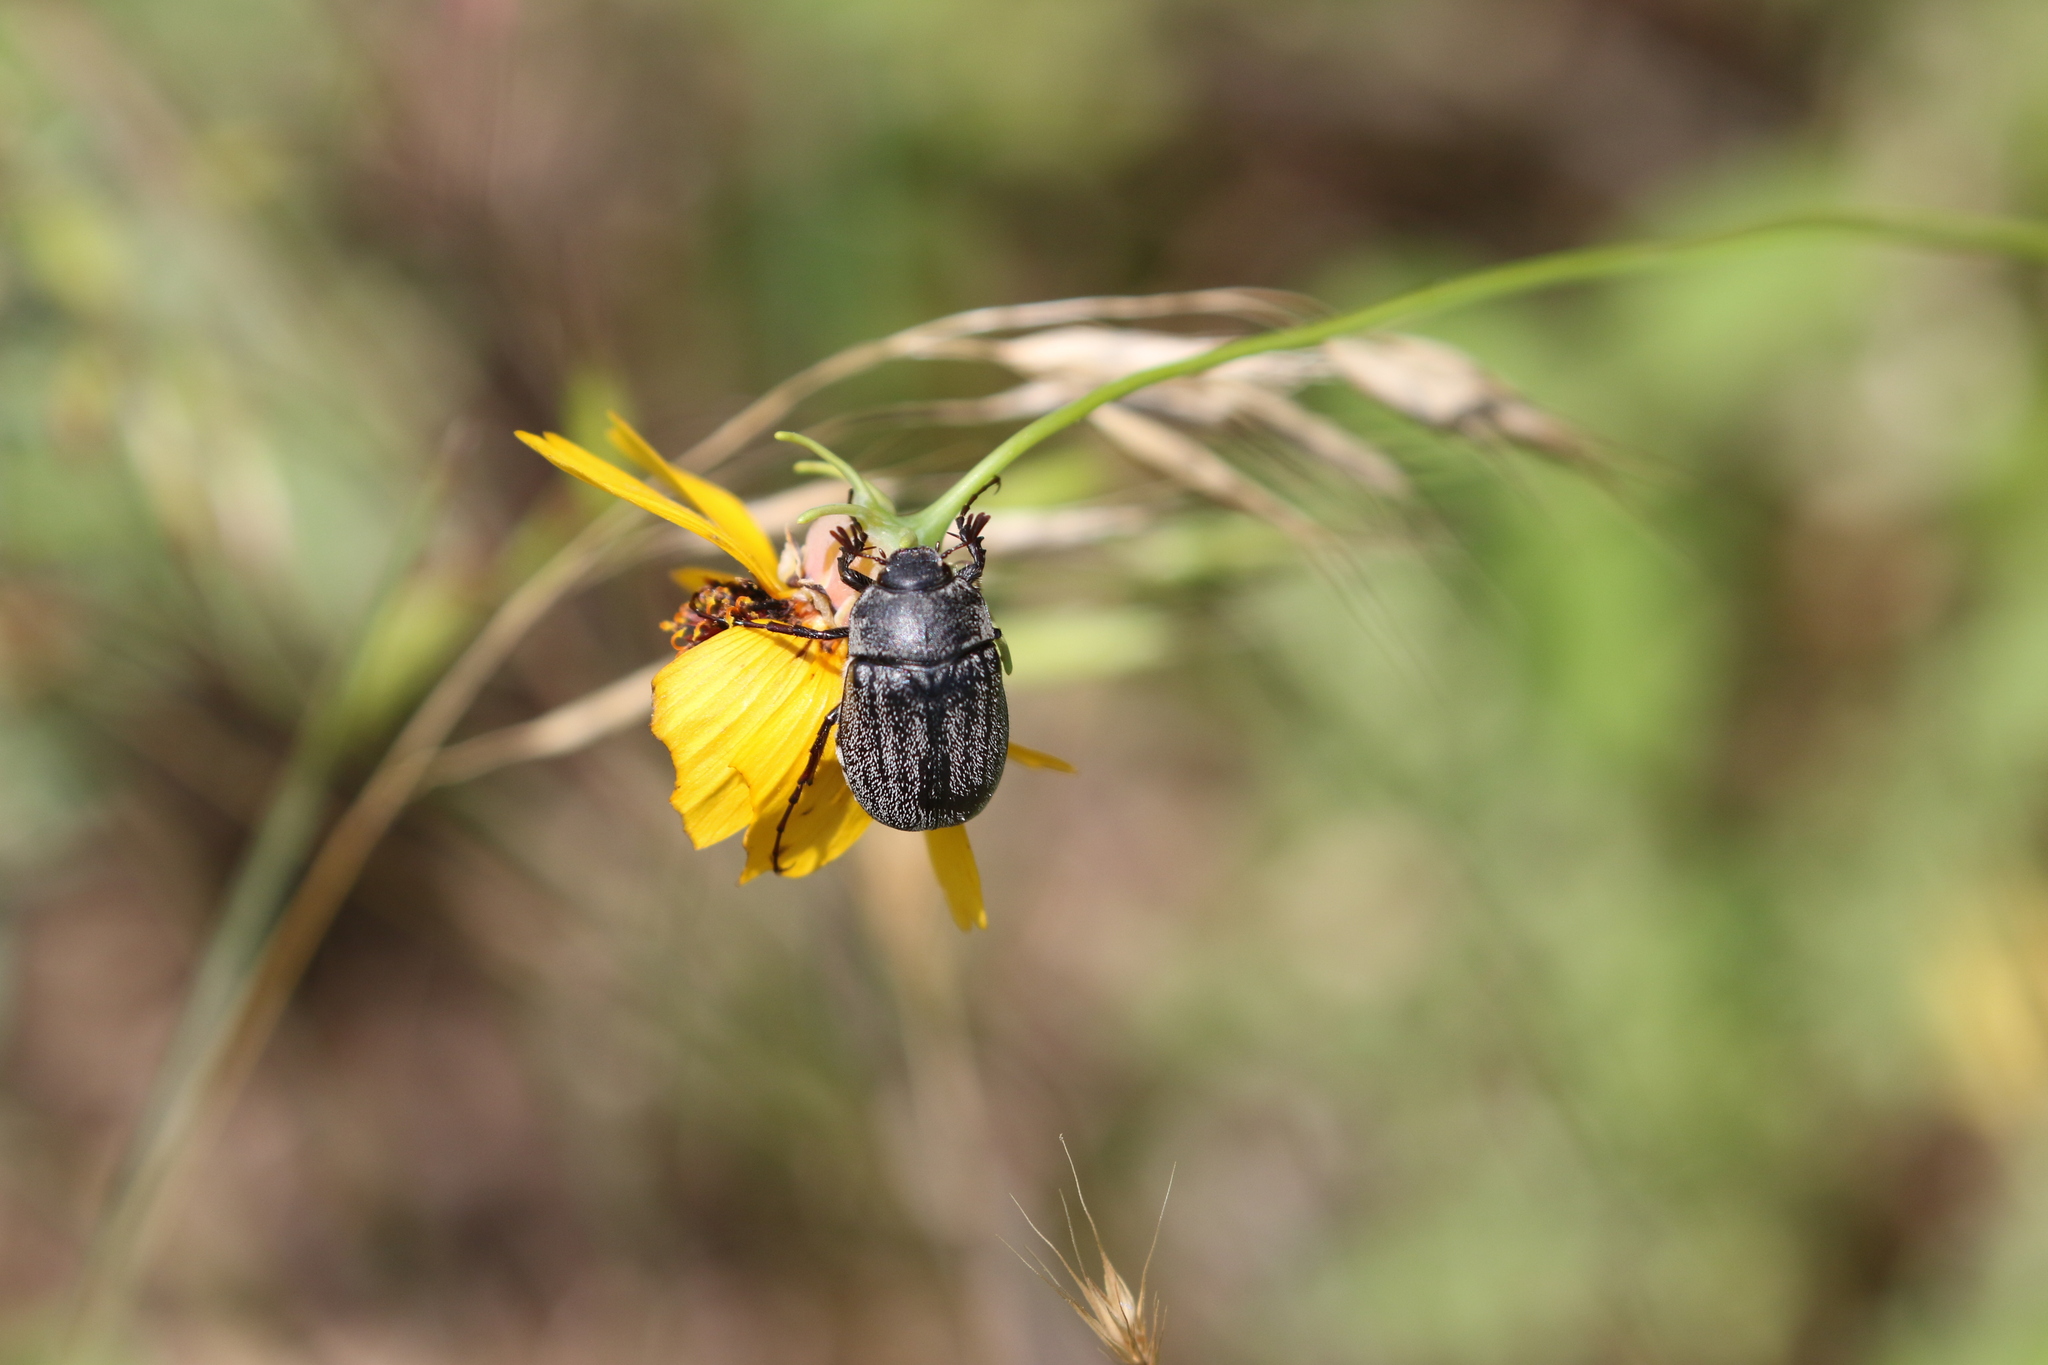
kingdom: Animalia
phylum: Arthropoda
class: Insecta
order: Coleoptera
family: Scarabaeidae
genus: Phyllophaga
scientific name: Phyllophaga lanceolata
